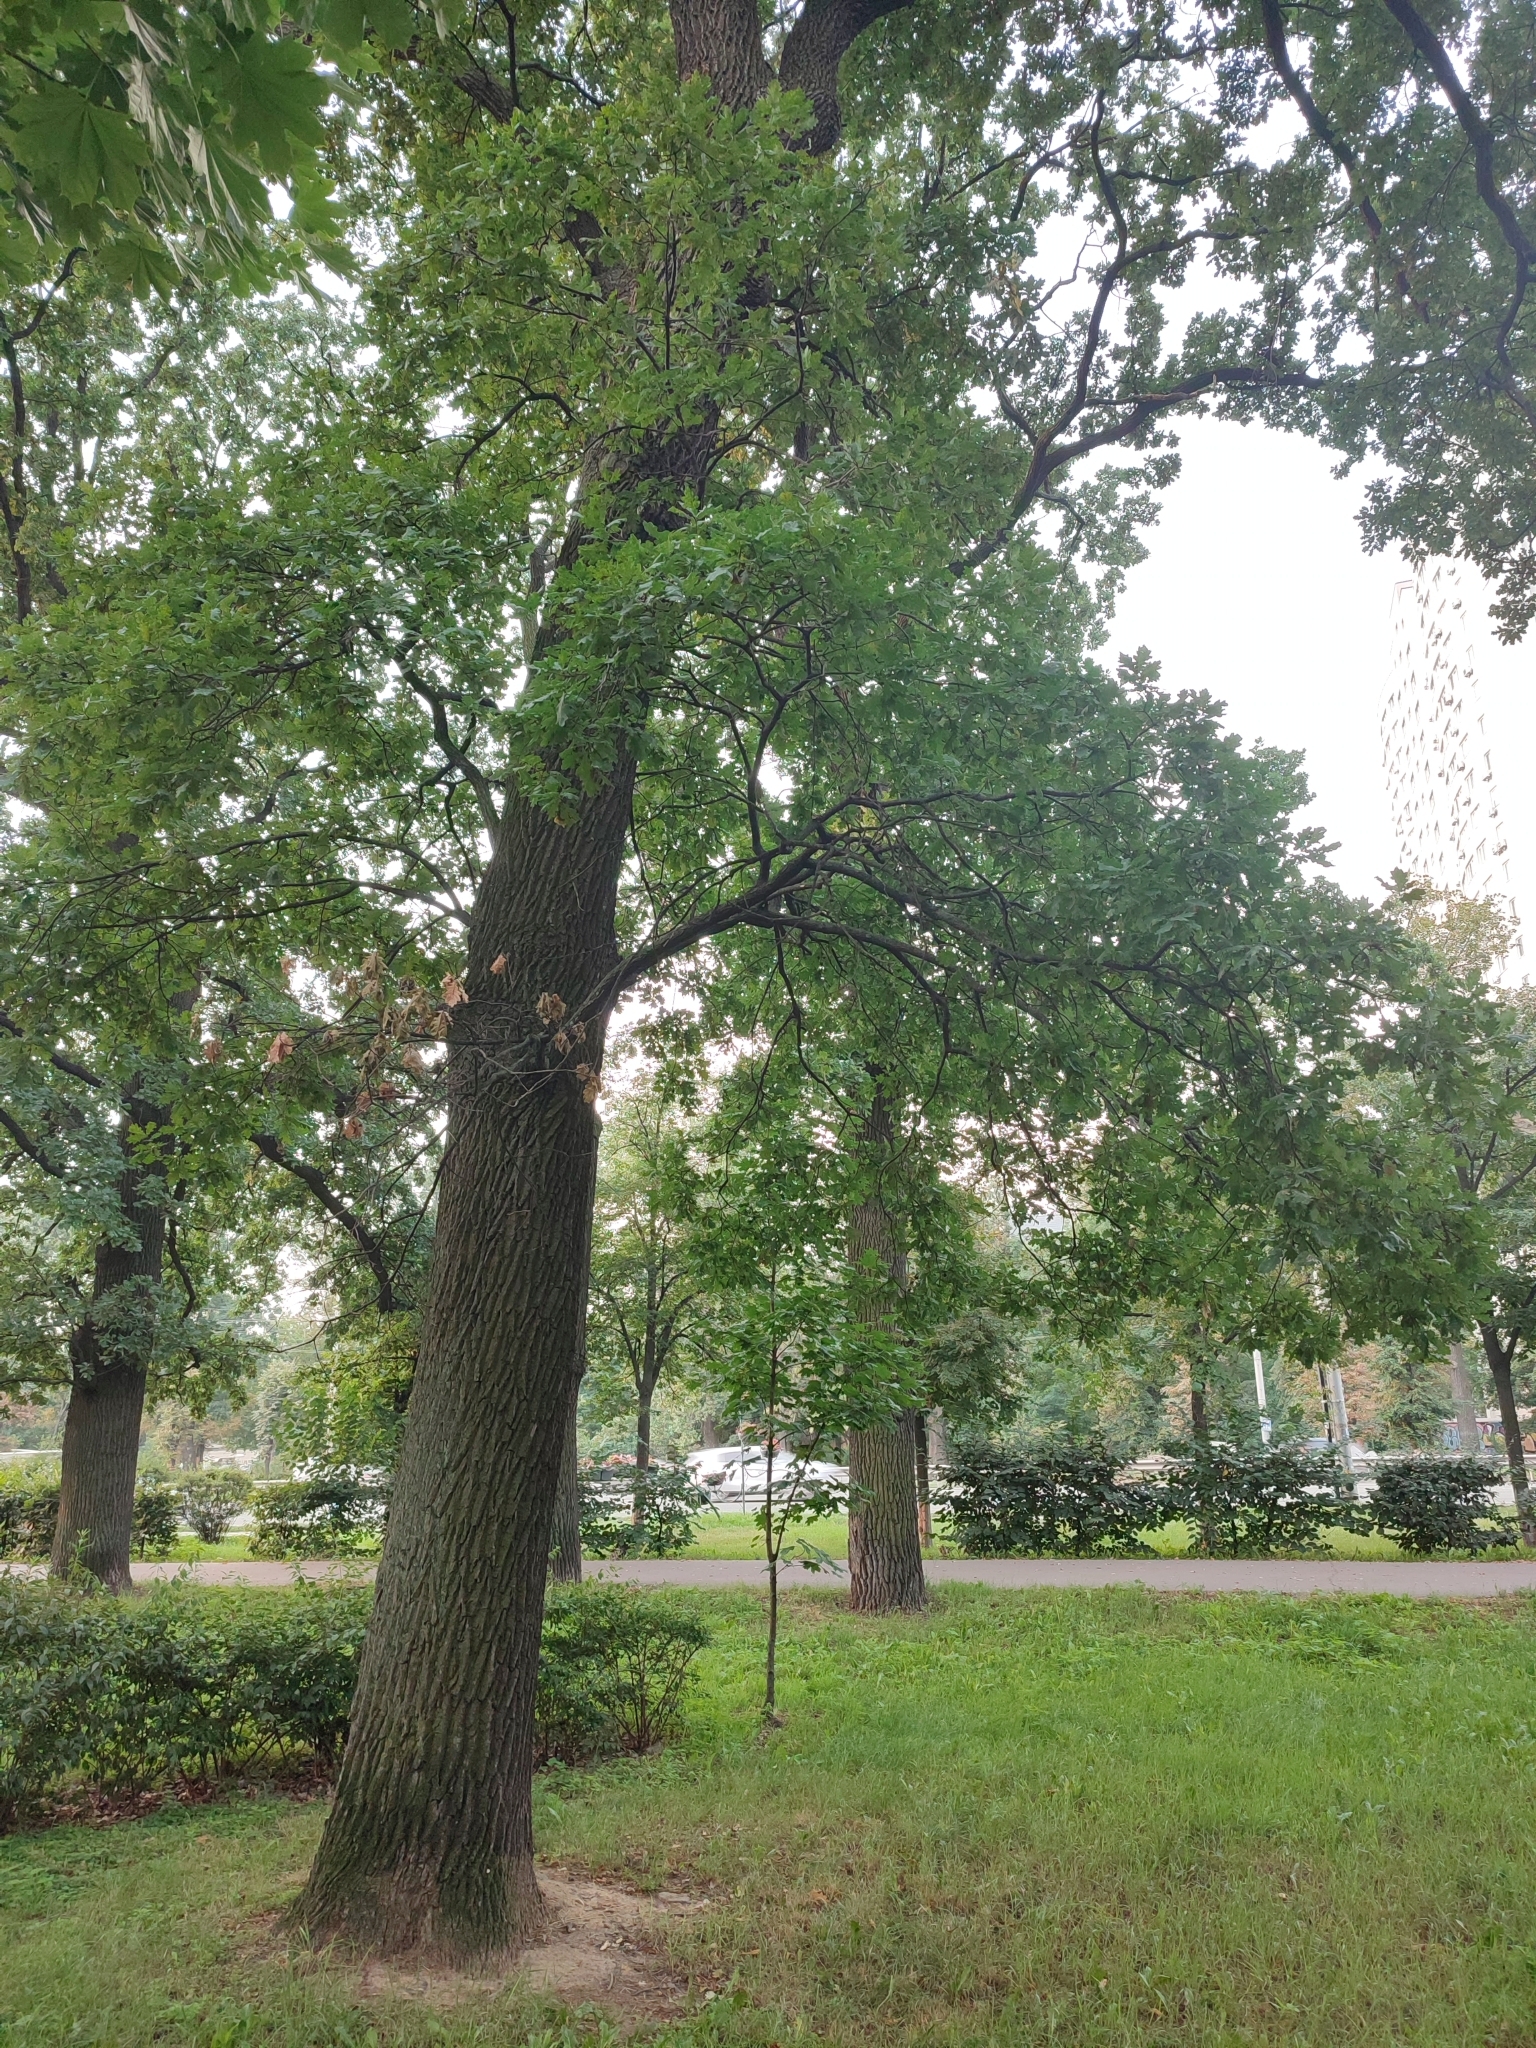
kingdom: Plantae
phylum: Tracheophyta
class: Magnoliopsida
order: Fagales
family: Fagaceae
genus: Quercus
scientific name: Quercus robur
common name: Pedunculate oak
